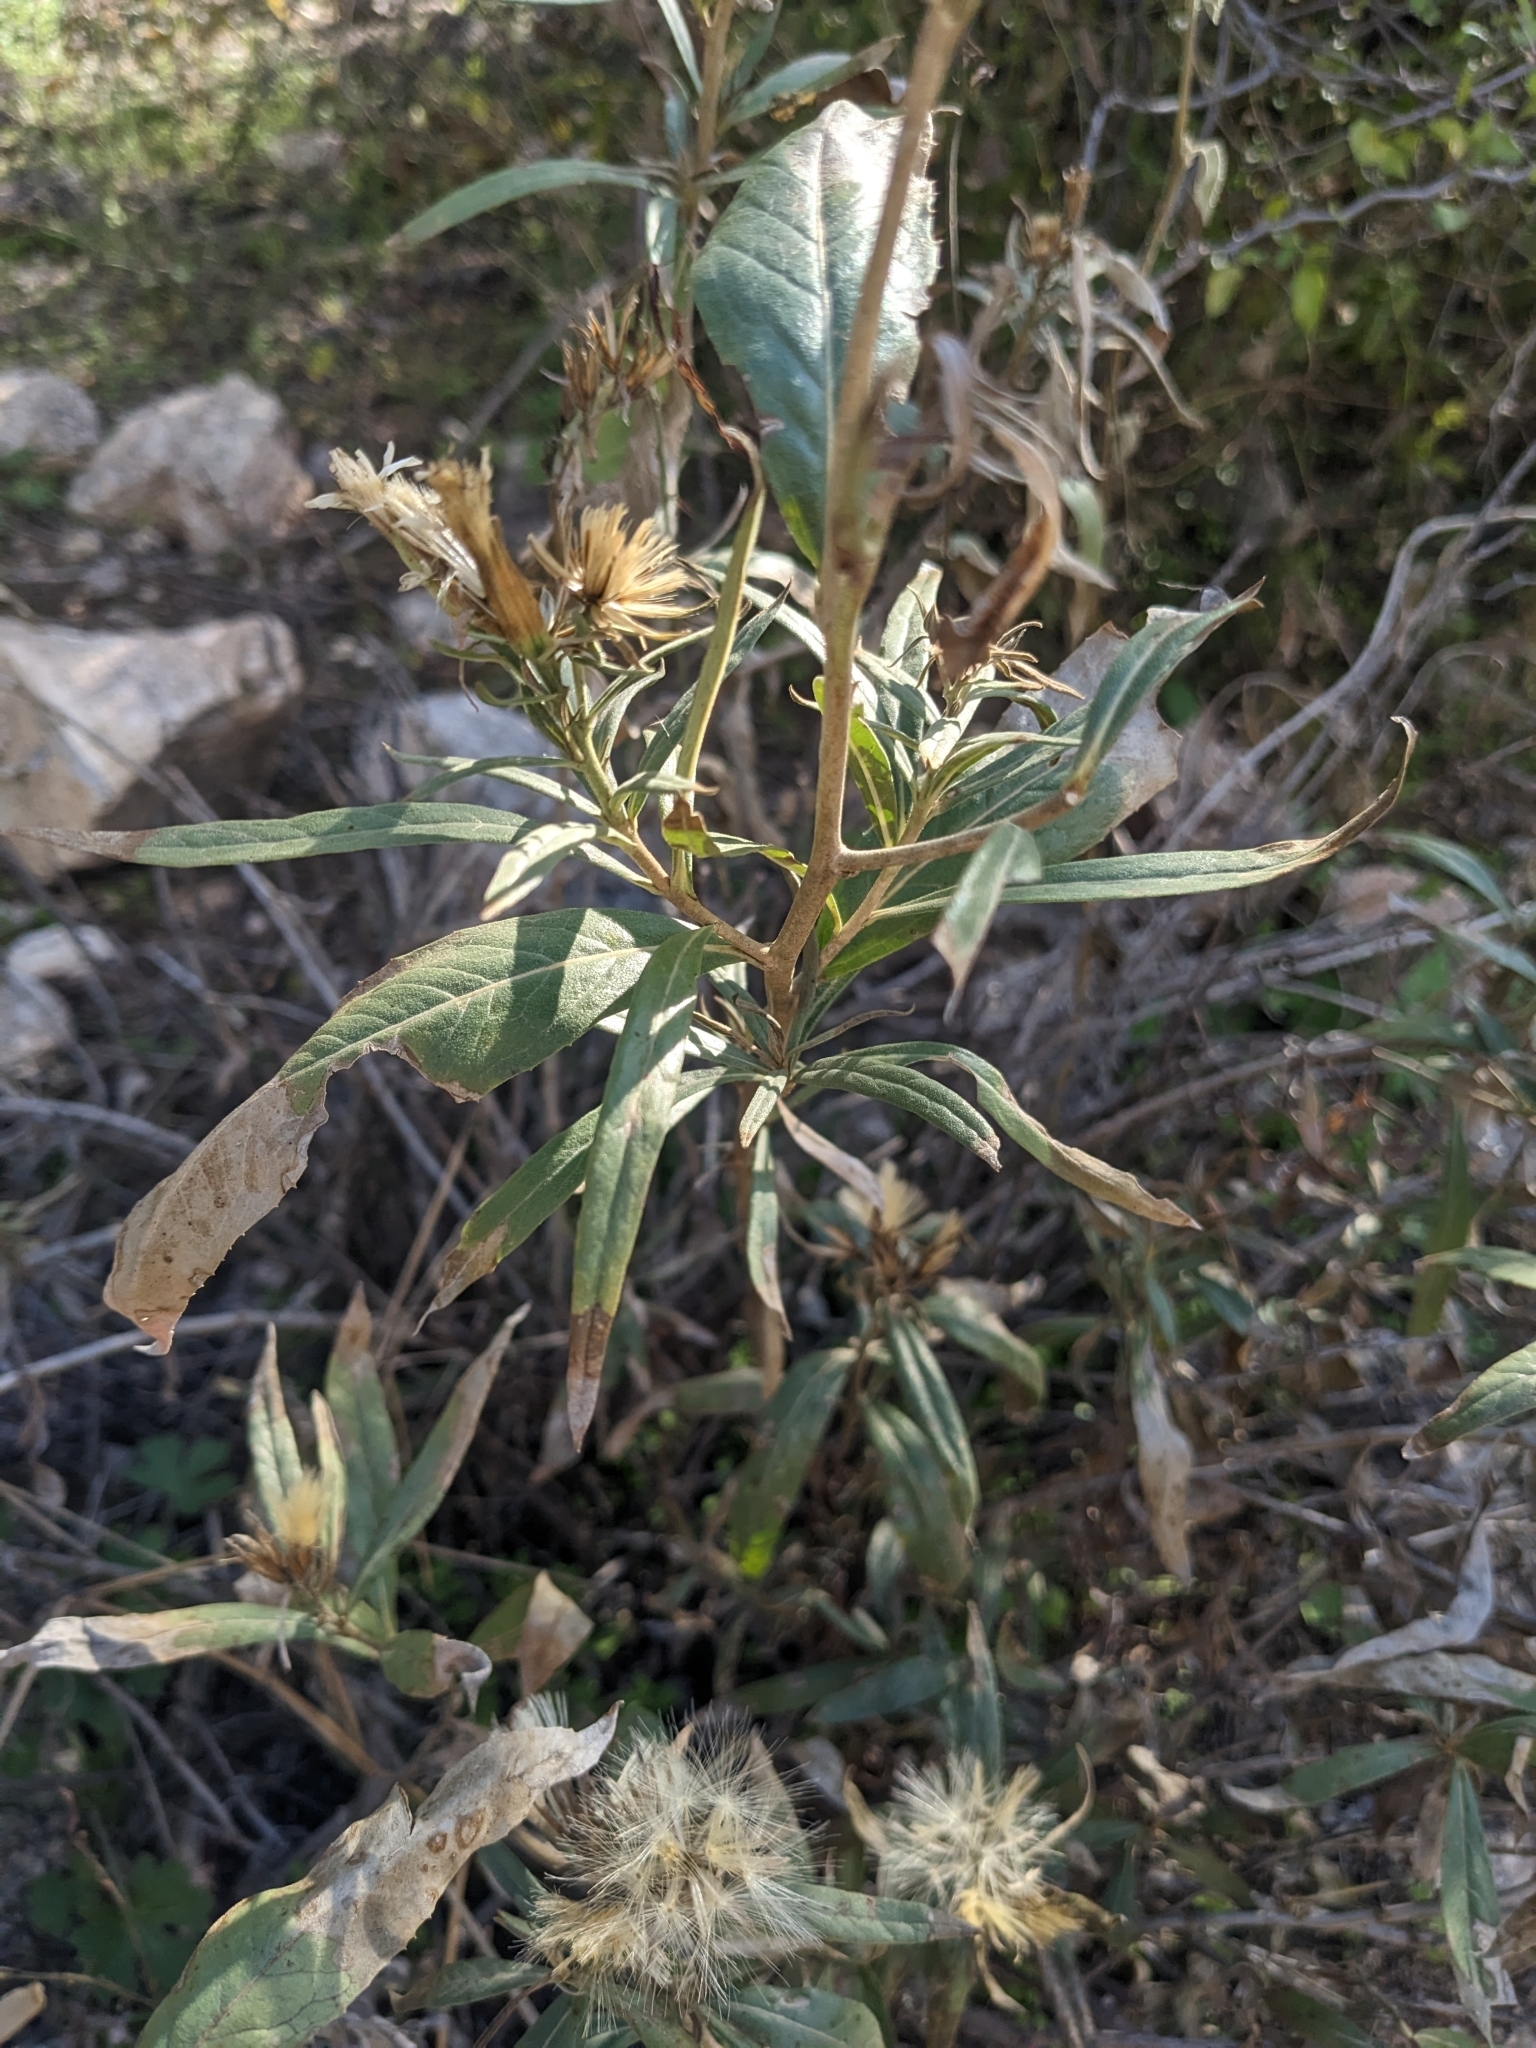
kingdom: Plantae
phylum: Tracheophyta
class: Magnoliopsida
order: Asterales
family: Asteraceae
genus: Trixis
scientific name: Trixis californica
